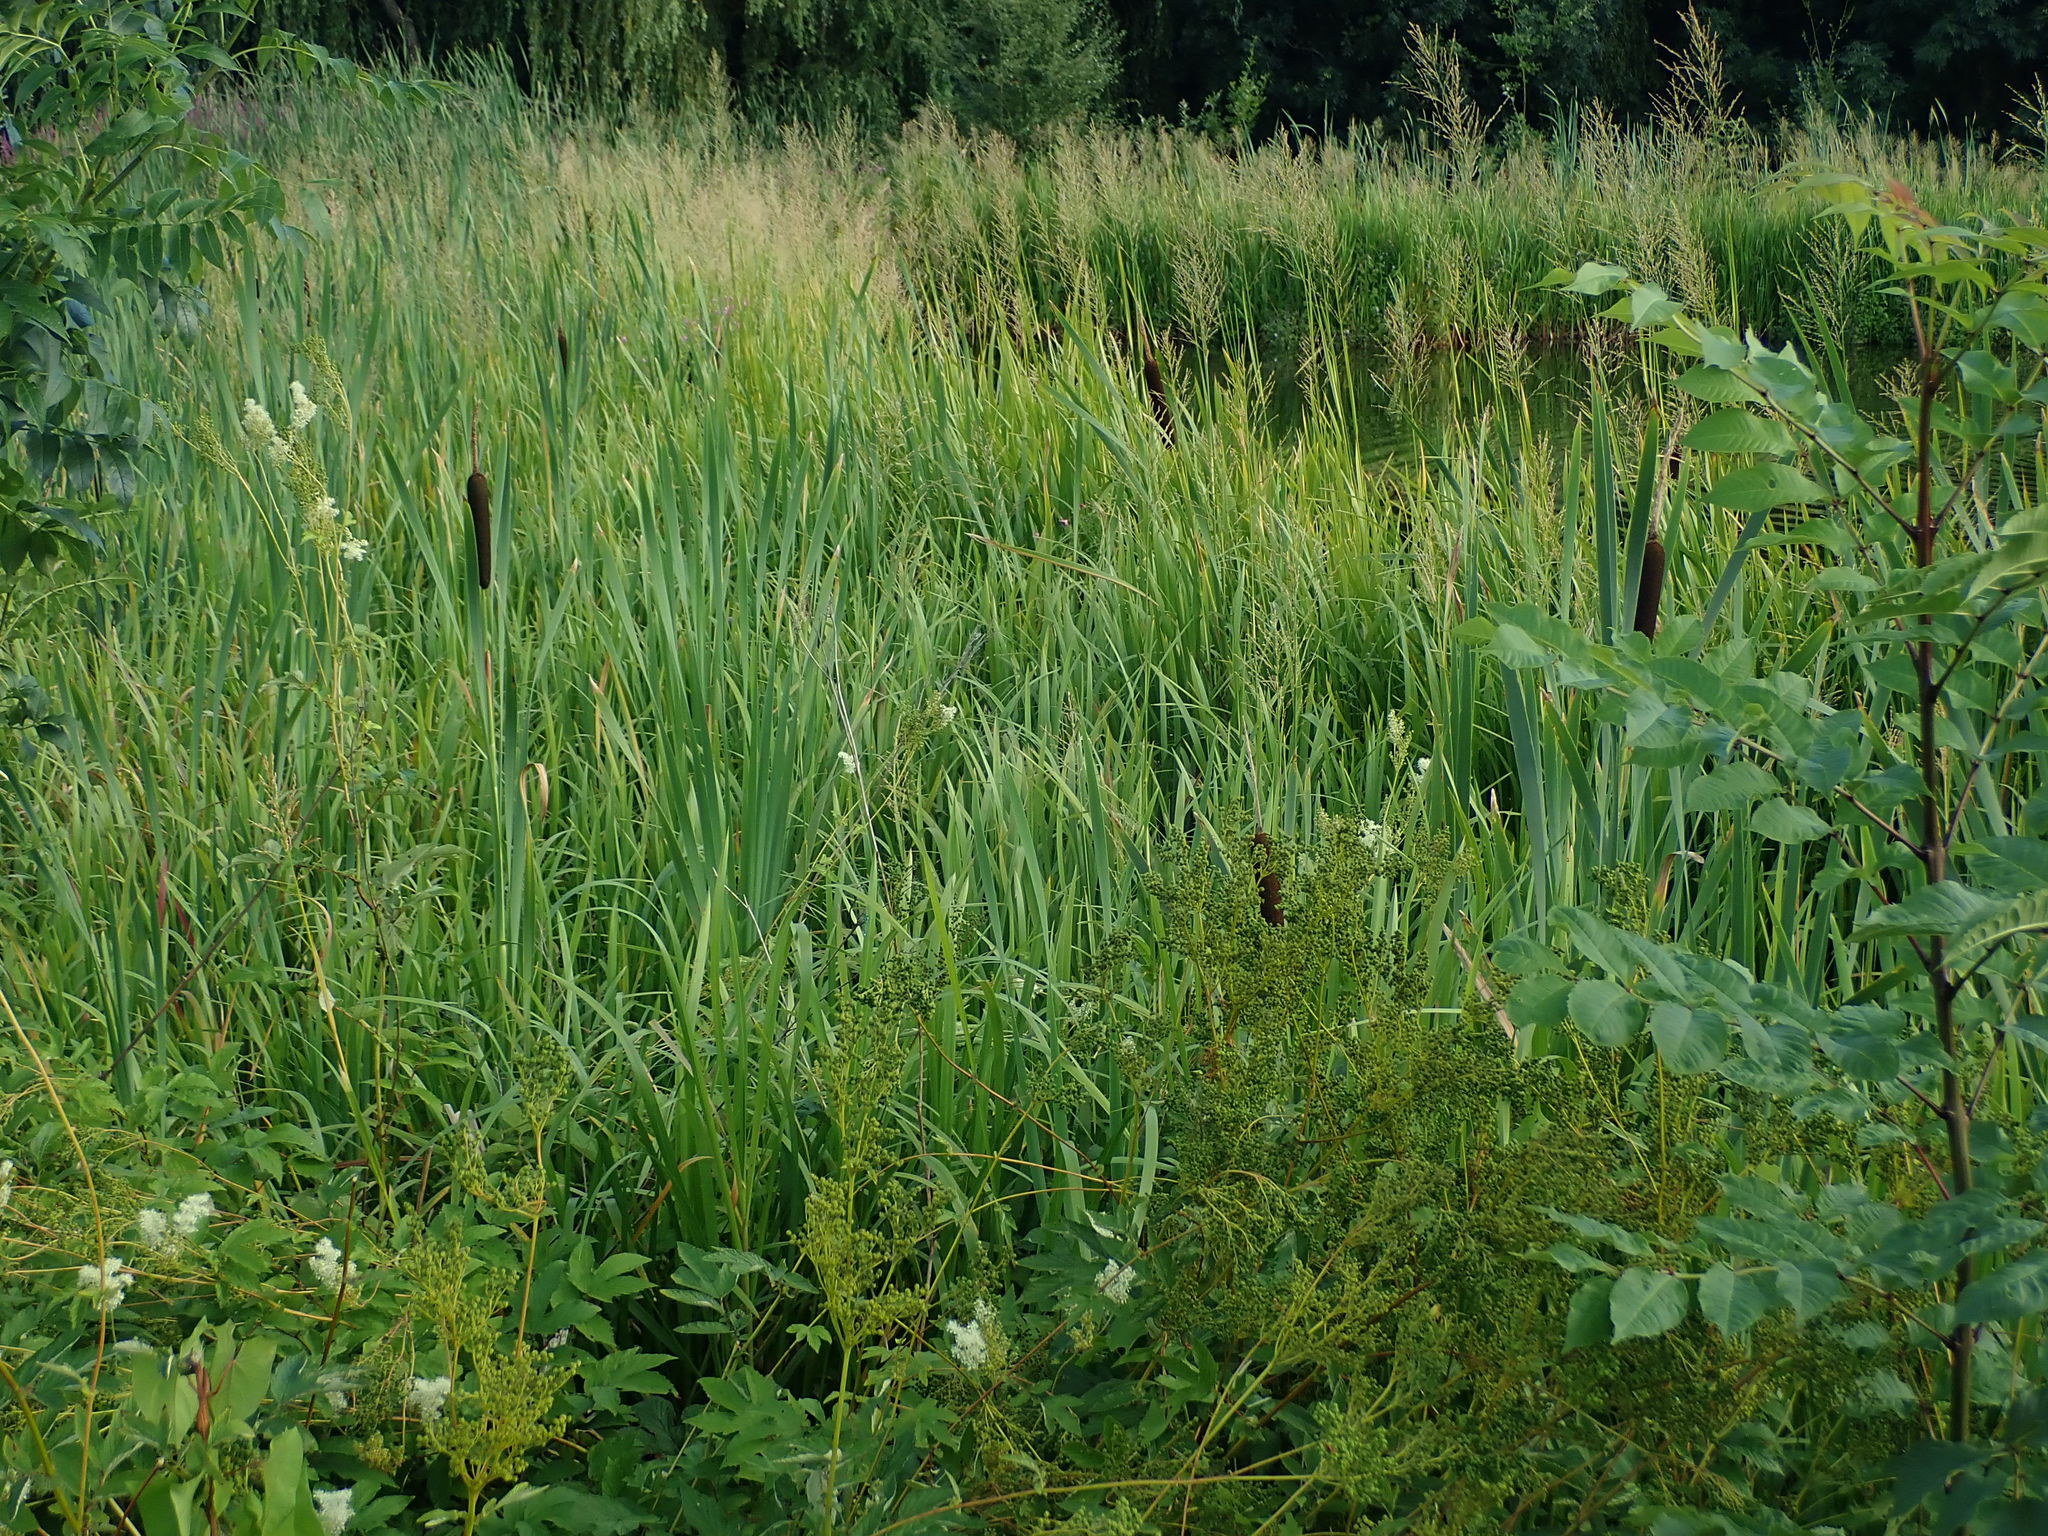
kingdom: Plantae
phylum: Tracheophyta
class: Liliopsida
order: Poales
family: Typhaceae
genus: Typha
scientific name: Typha latifolia
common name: Broadleaf cattail
